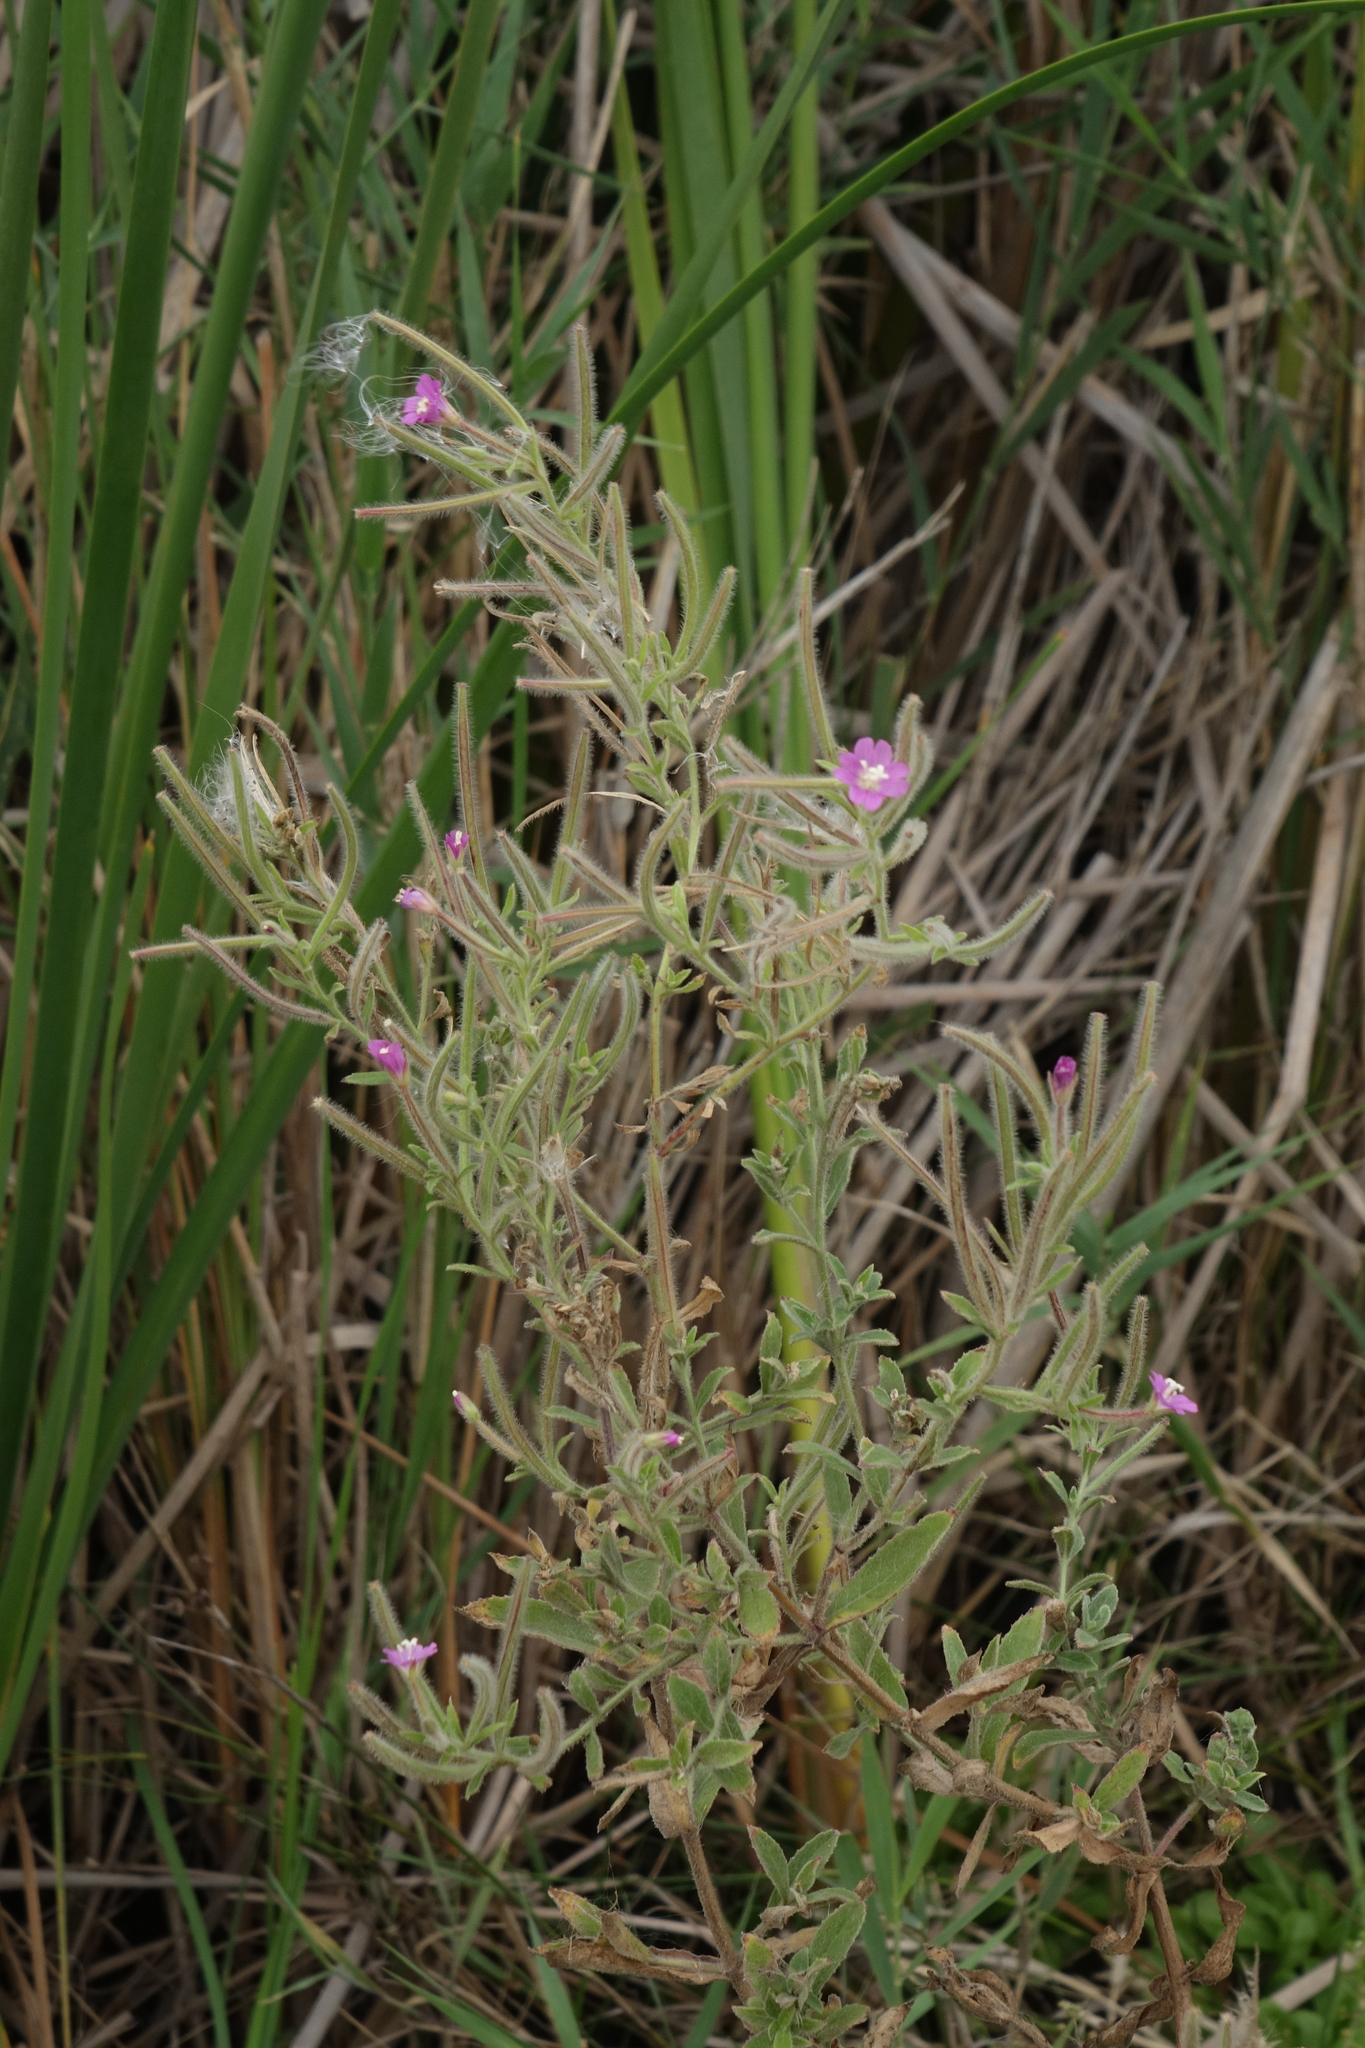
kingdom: Plantae
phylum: Tracheophyta
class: Magnoliopsida
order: Myrtales
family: Onagraceae
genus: Epilobium
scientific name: Epilobium hirsutum
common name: Great willowherb
